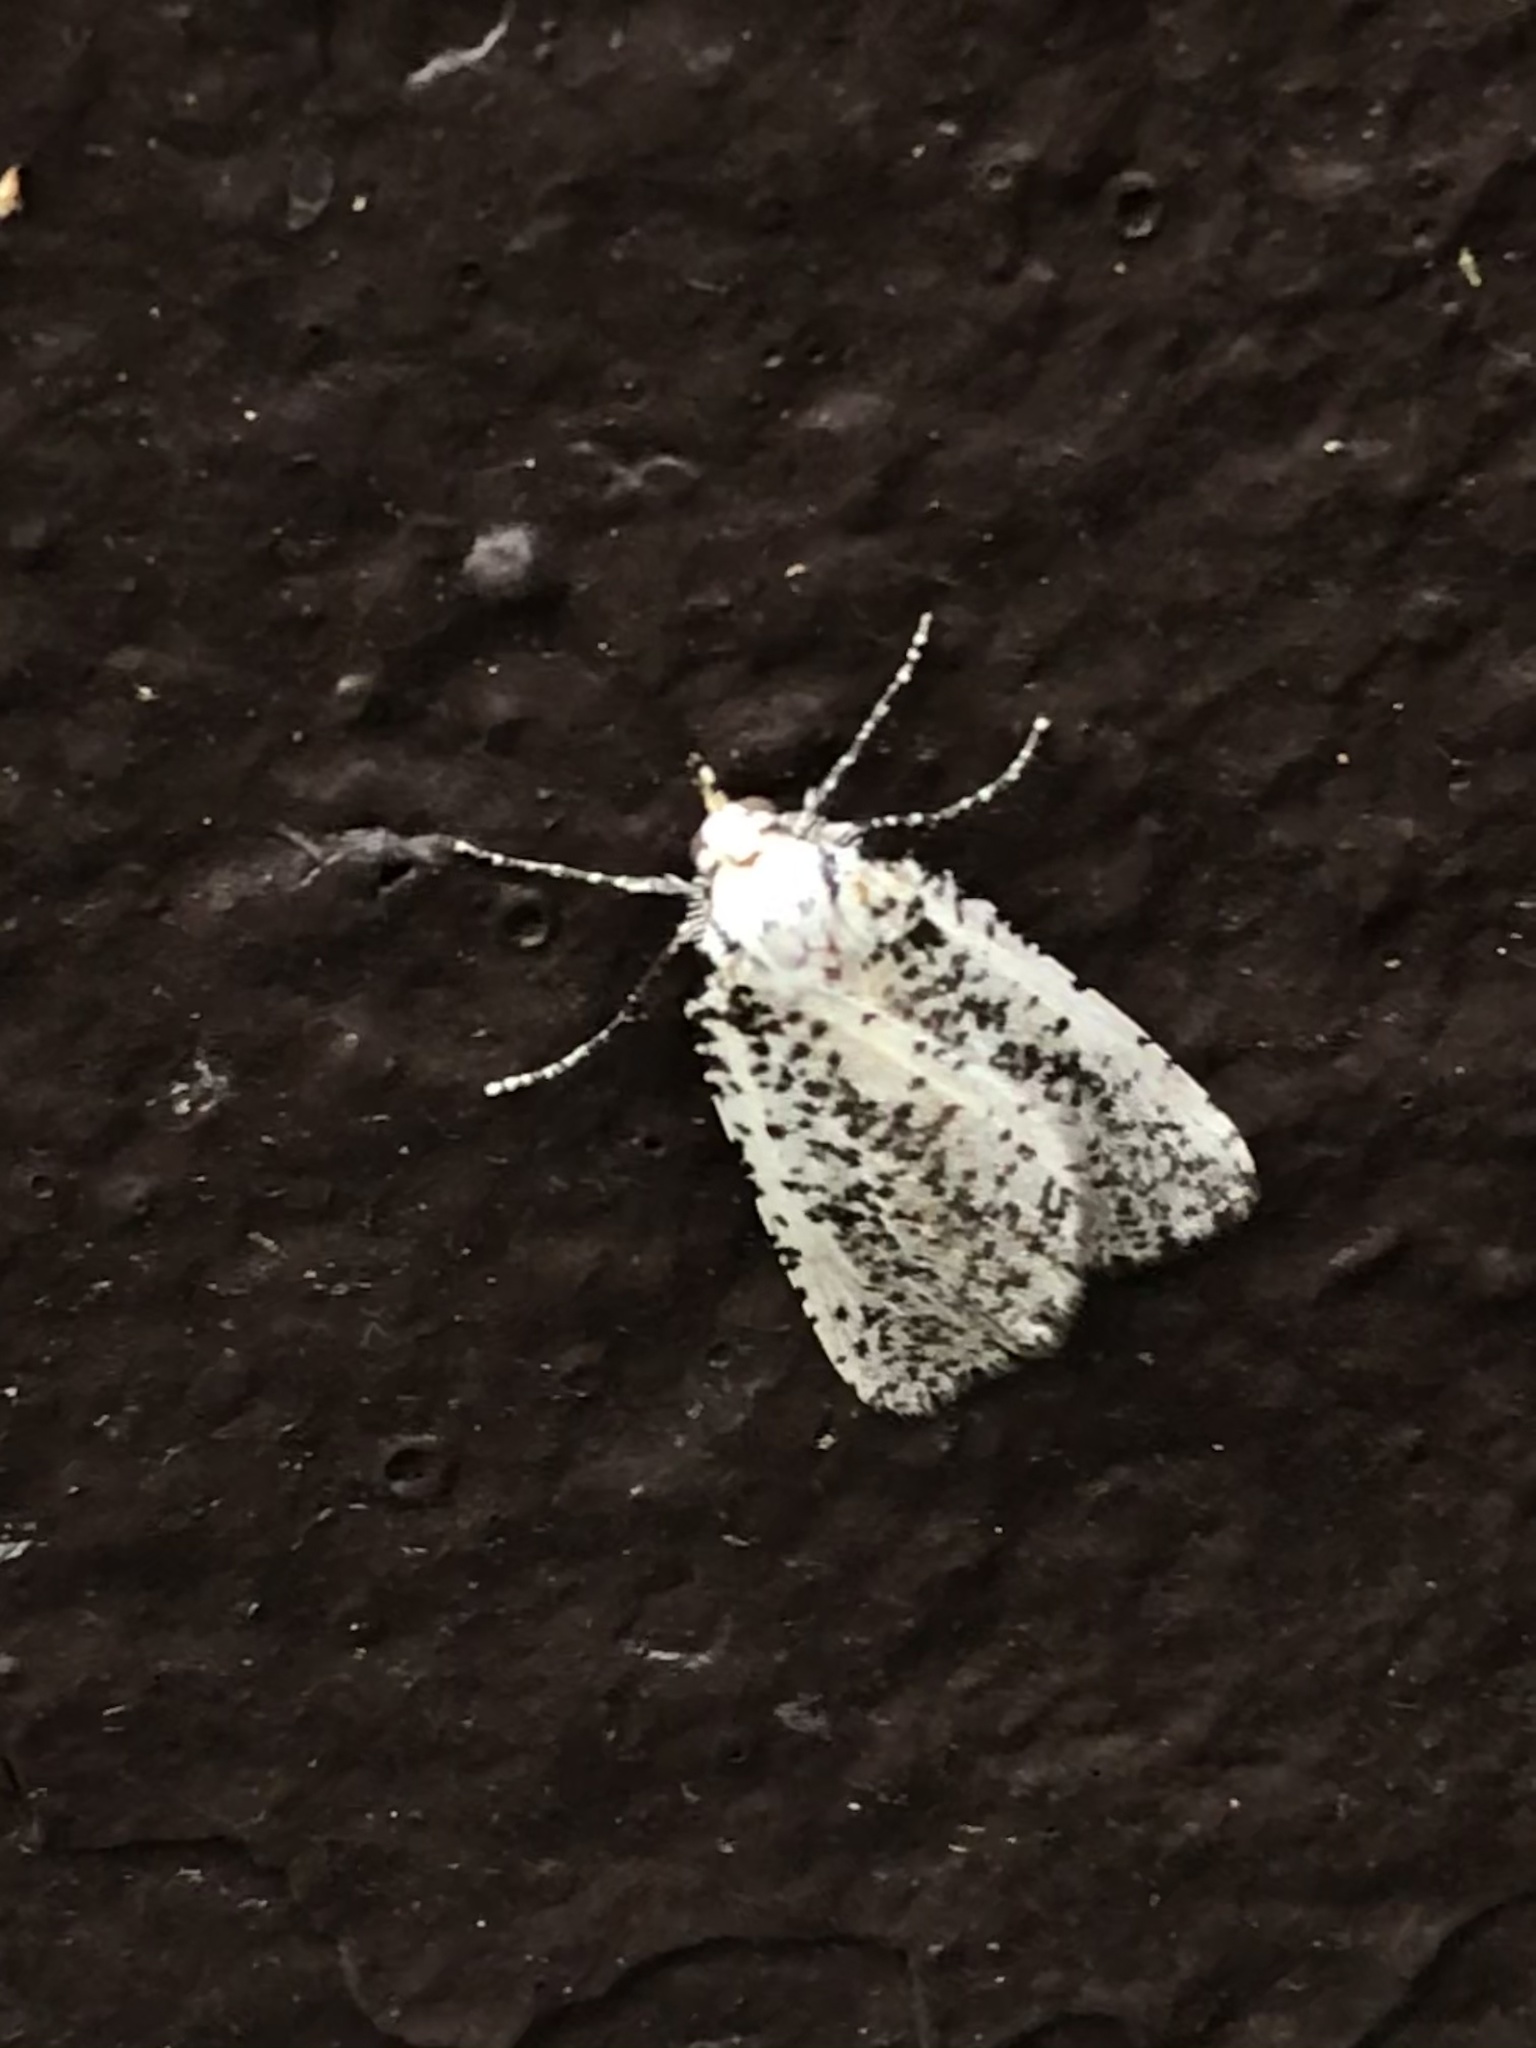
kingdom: Animalia
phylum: Arthropoda
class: Insecta
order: Lepidoptera
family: Geometridae
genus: Eucaterva
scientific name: Eucaterva variaria
